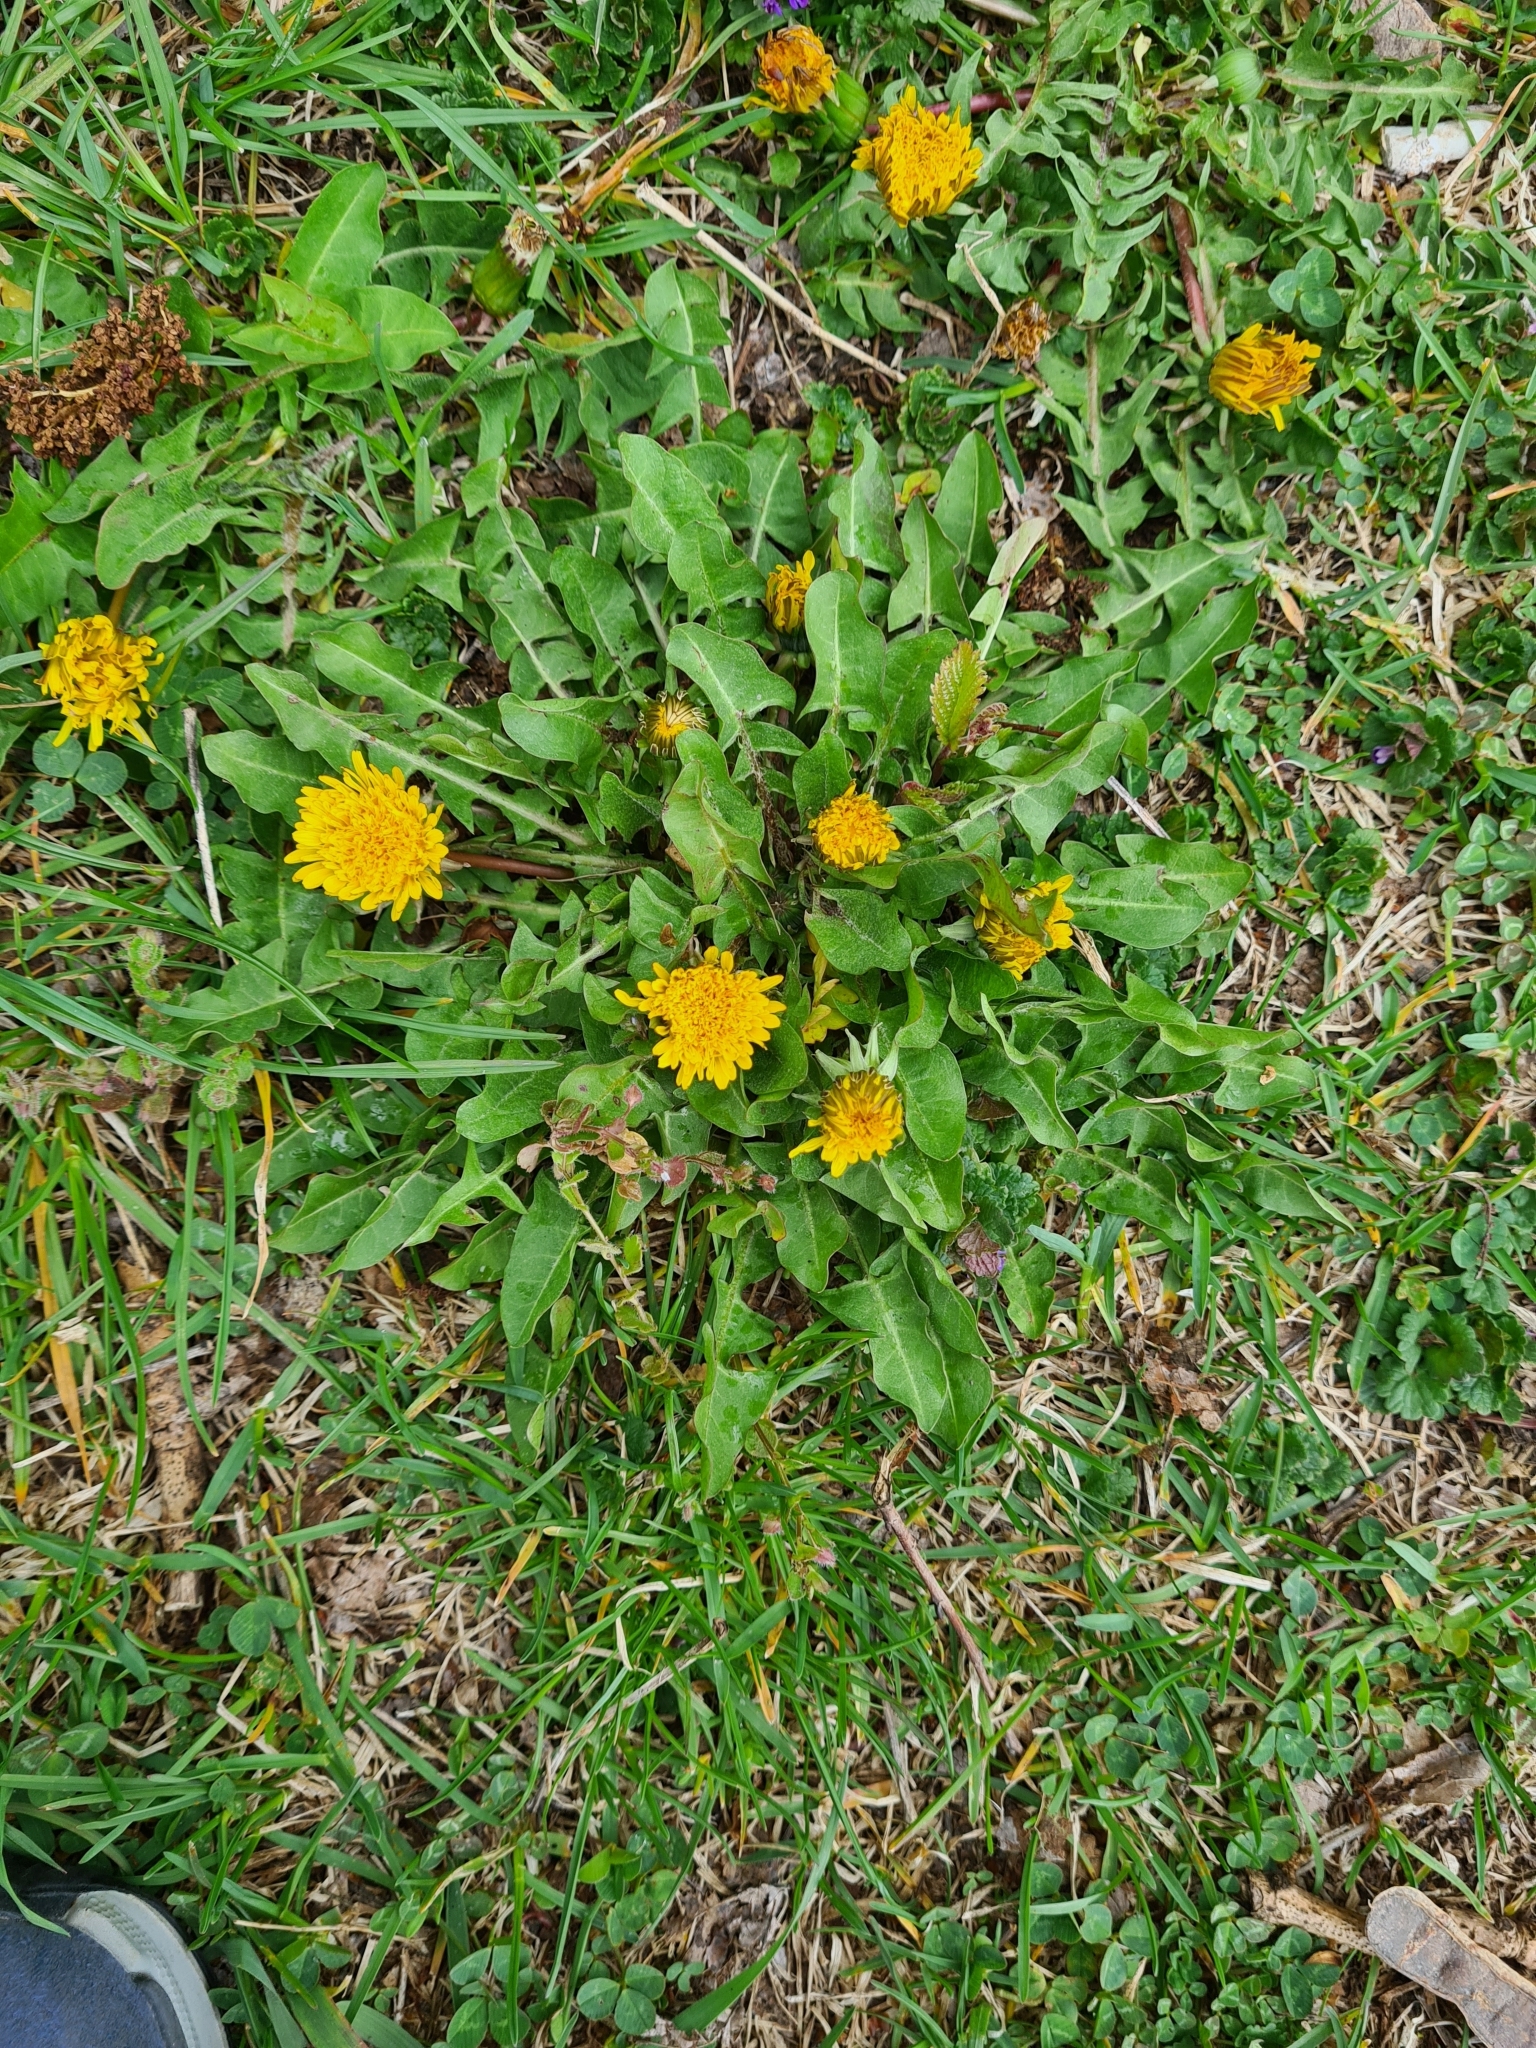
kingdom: Plantae
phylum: Tracheophyta
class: Magnoliopsida
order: Asterales
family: Asteraceae
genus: Taraxacum
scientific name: Taraxacum officinale
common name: Common dandelion
